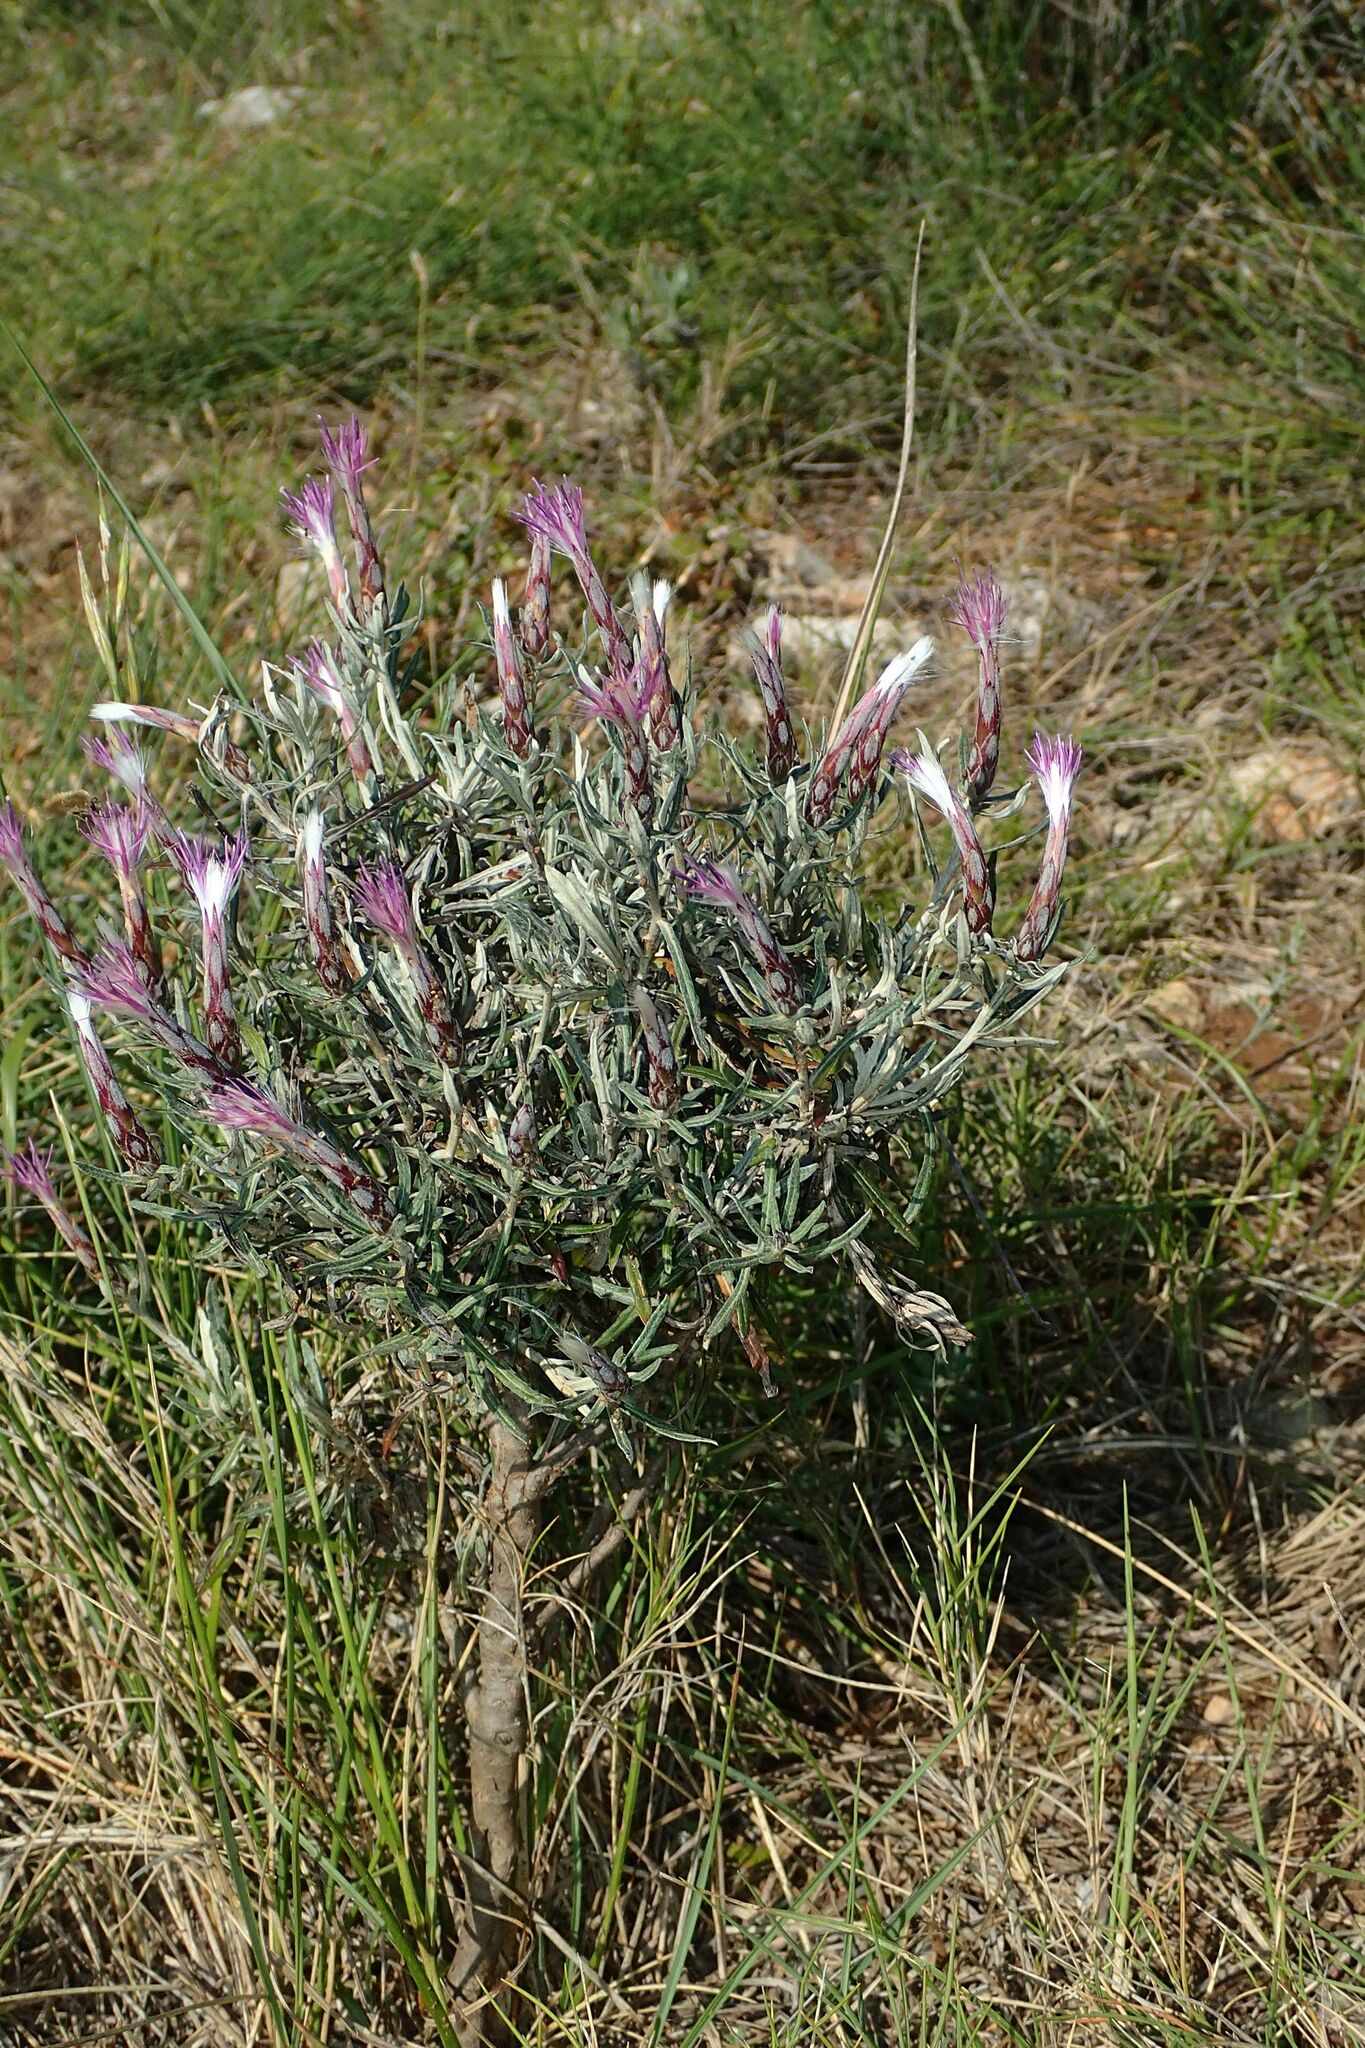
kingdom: Plantae
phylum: Tracheophyta
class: Magnoliopsida
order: Asterales
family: Asteraceae
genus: Staehelina
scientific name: Staehelina dubia
